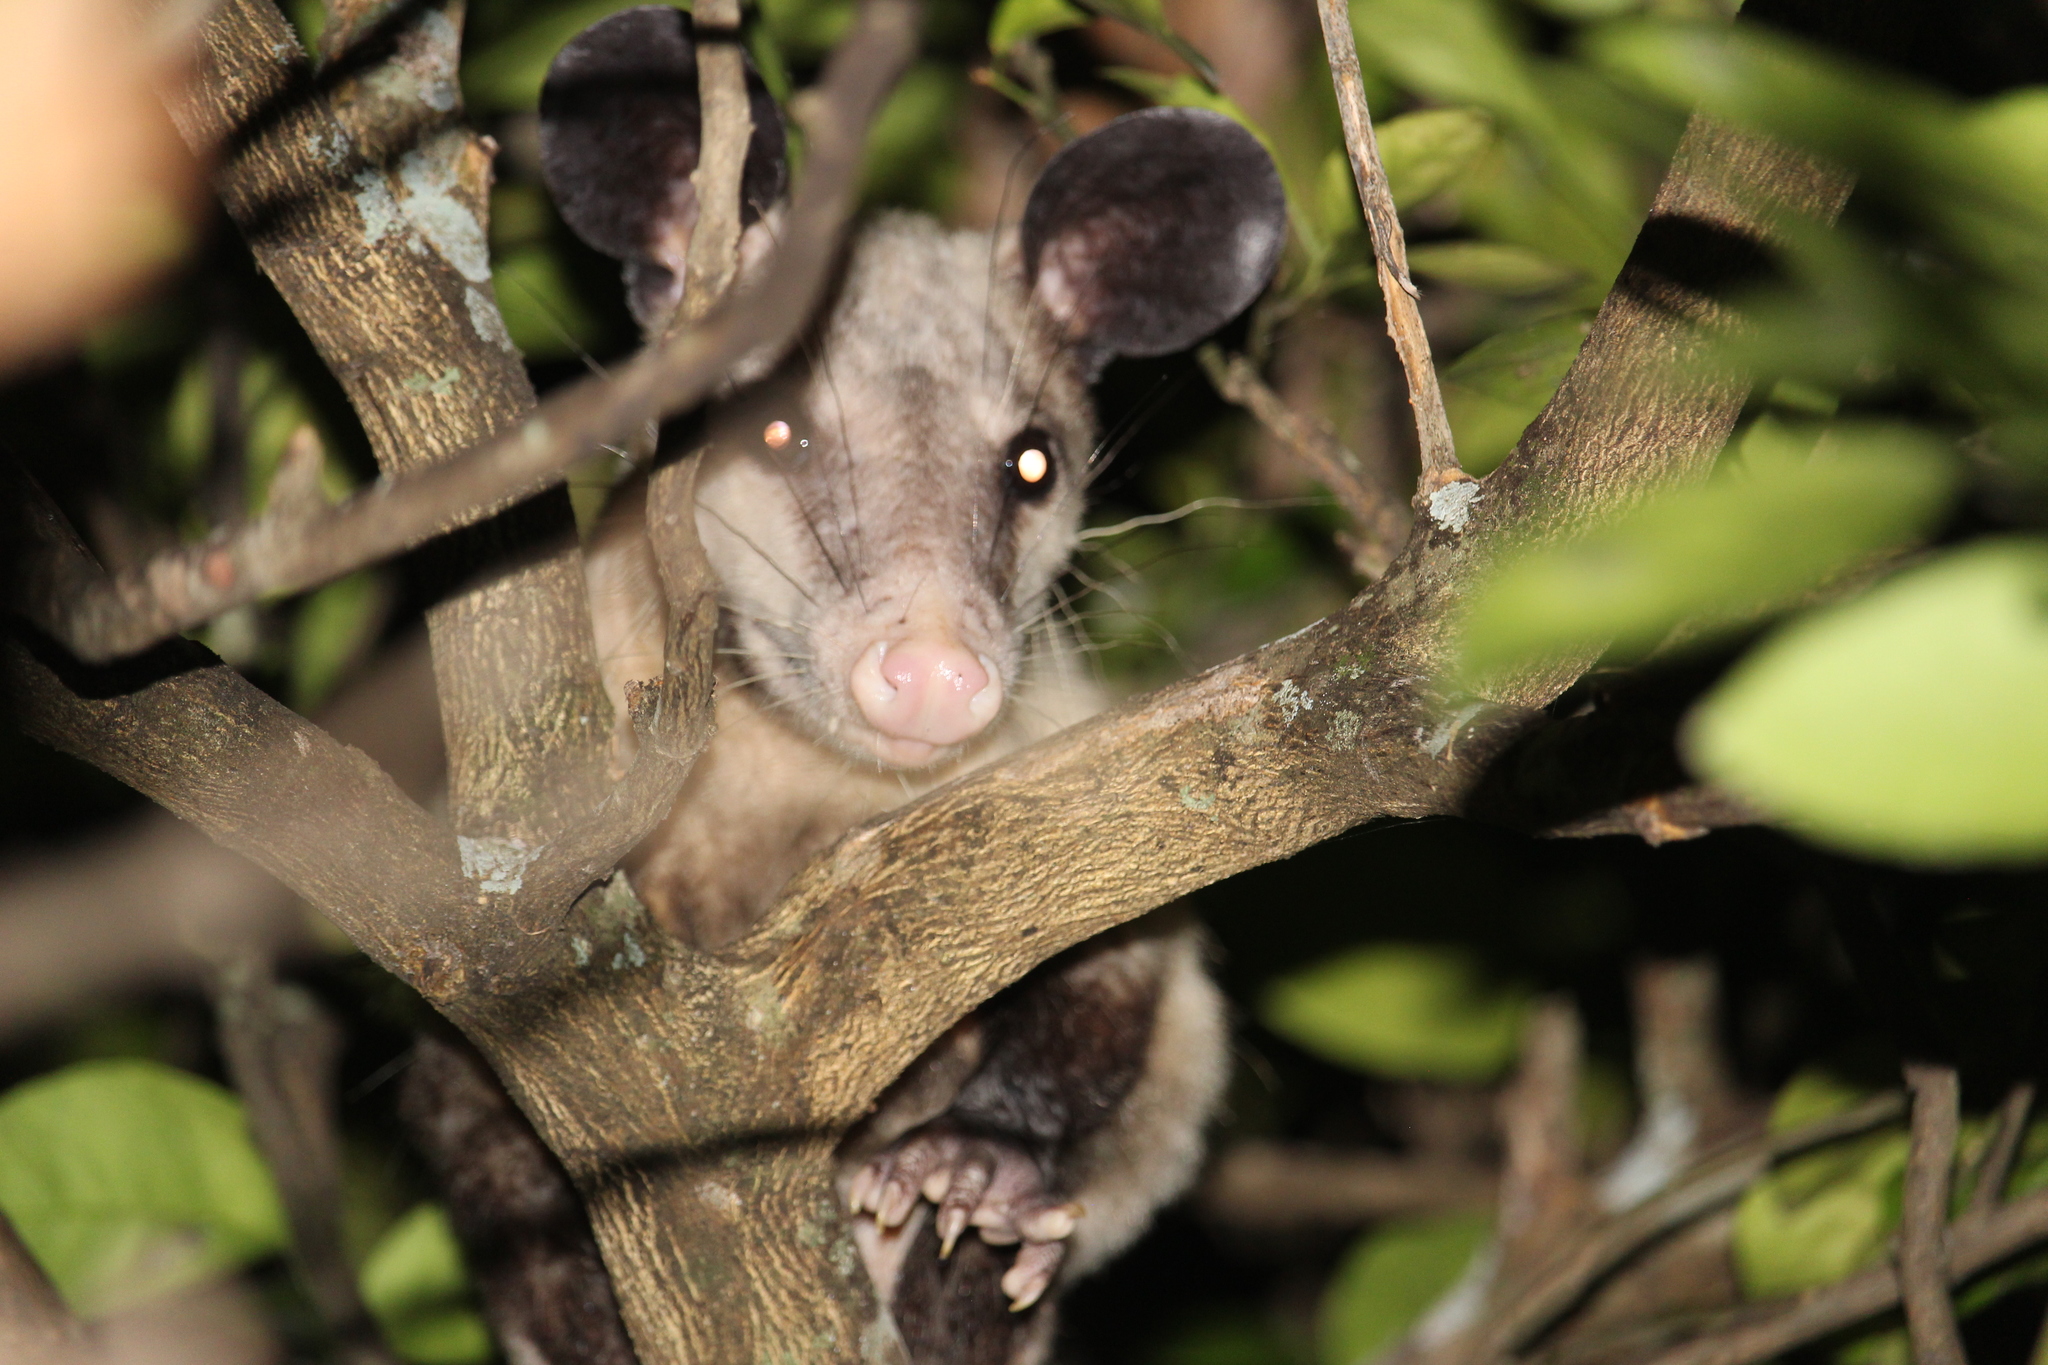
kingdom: Animalia
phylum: Chordata
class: Mammalia
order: Didelphimorphia
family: Didelphidae
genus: Didelphis
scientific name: Didelphis marsupialis
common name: Common opossum
